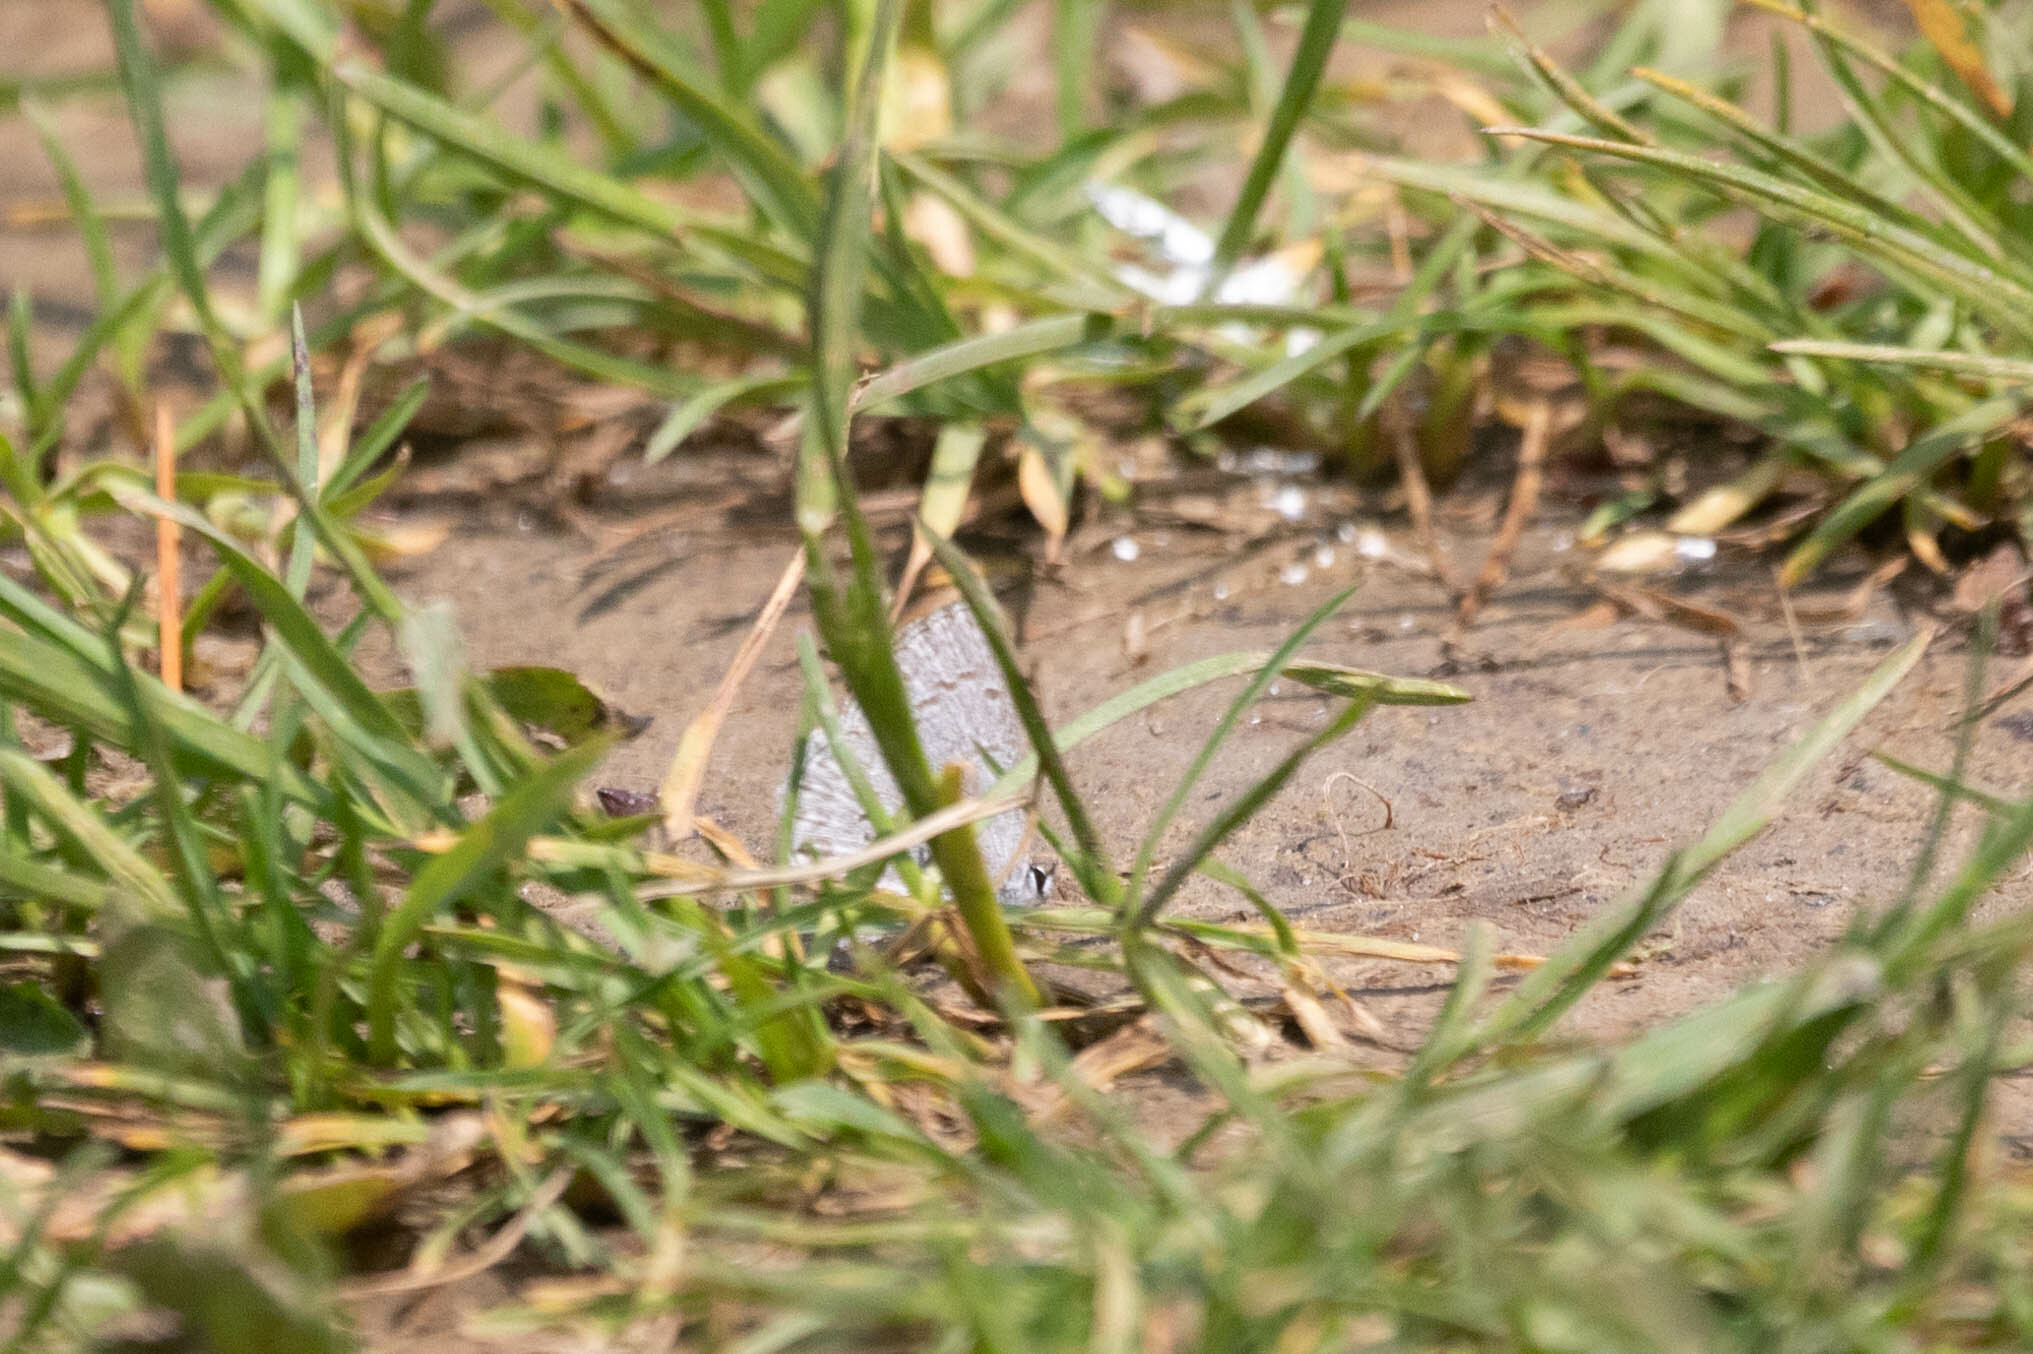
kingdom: Animalia
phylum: Arthropoda
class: Insecta
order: Lepidoptera
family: Lycaenidae
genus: Celastrina
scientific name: Celastrina lucia
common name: Lucia azure
